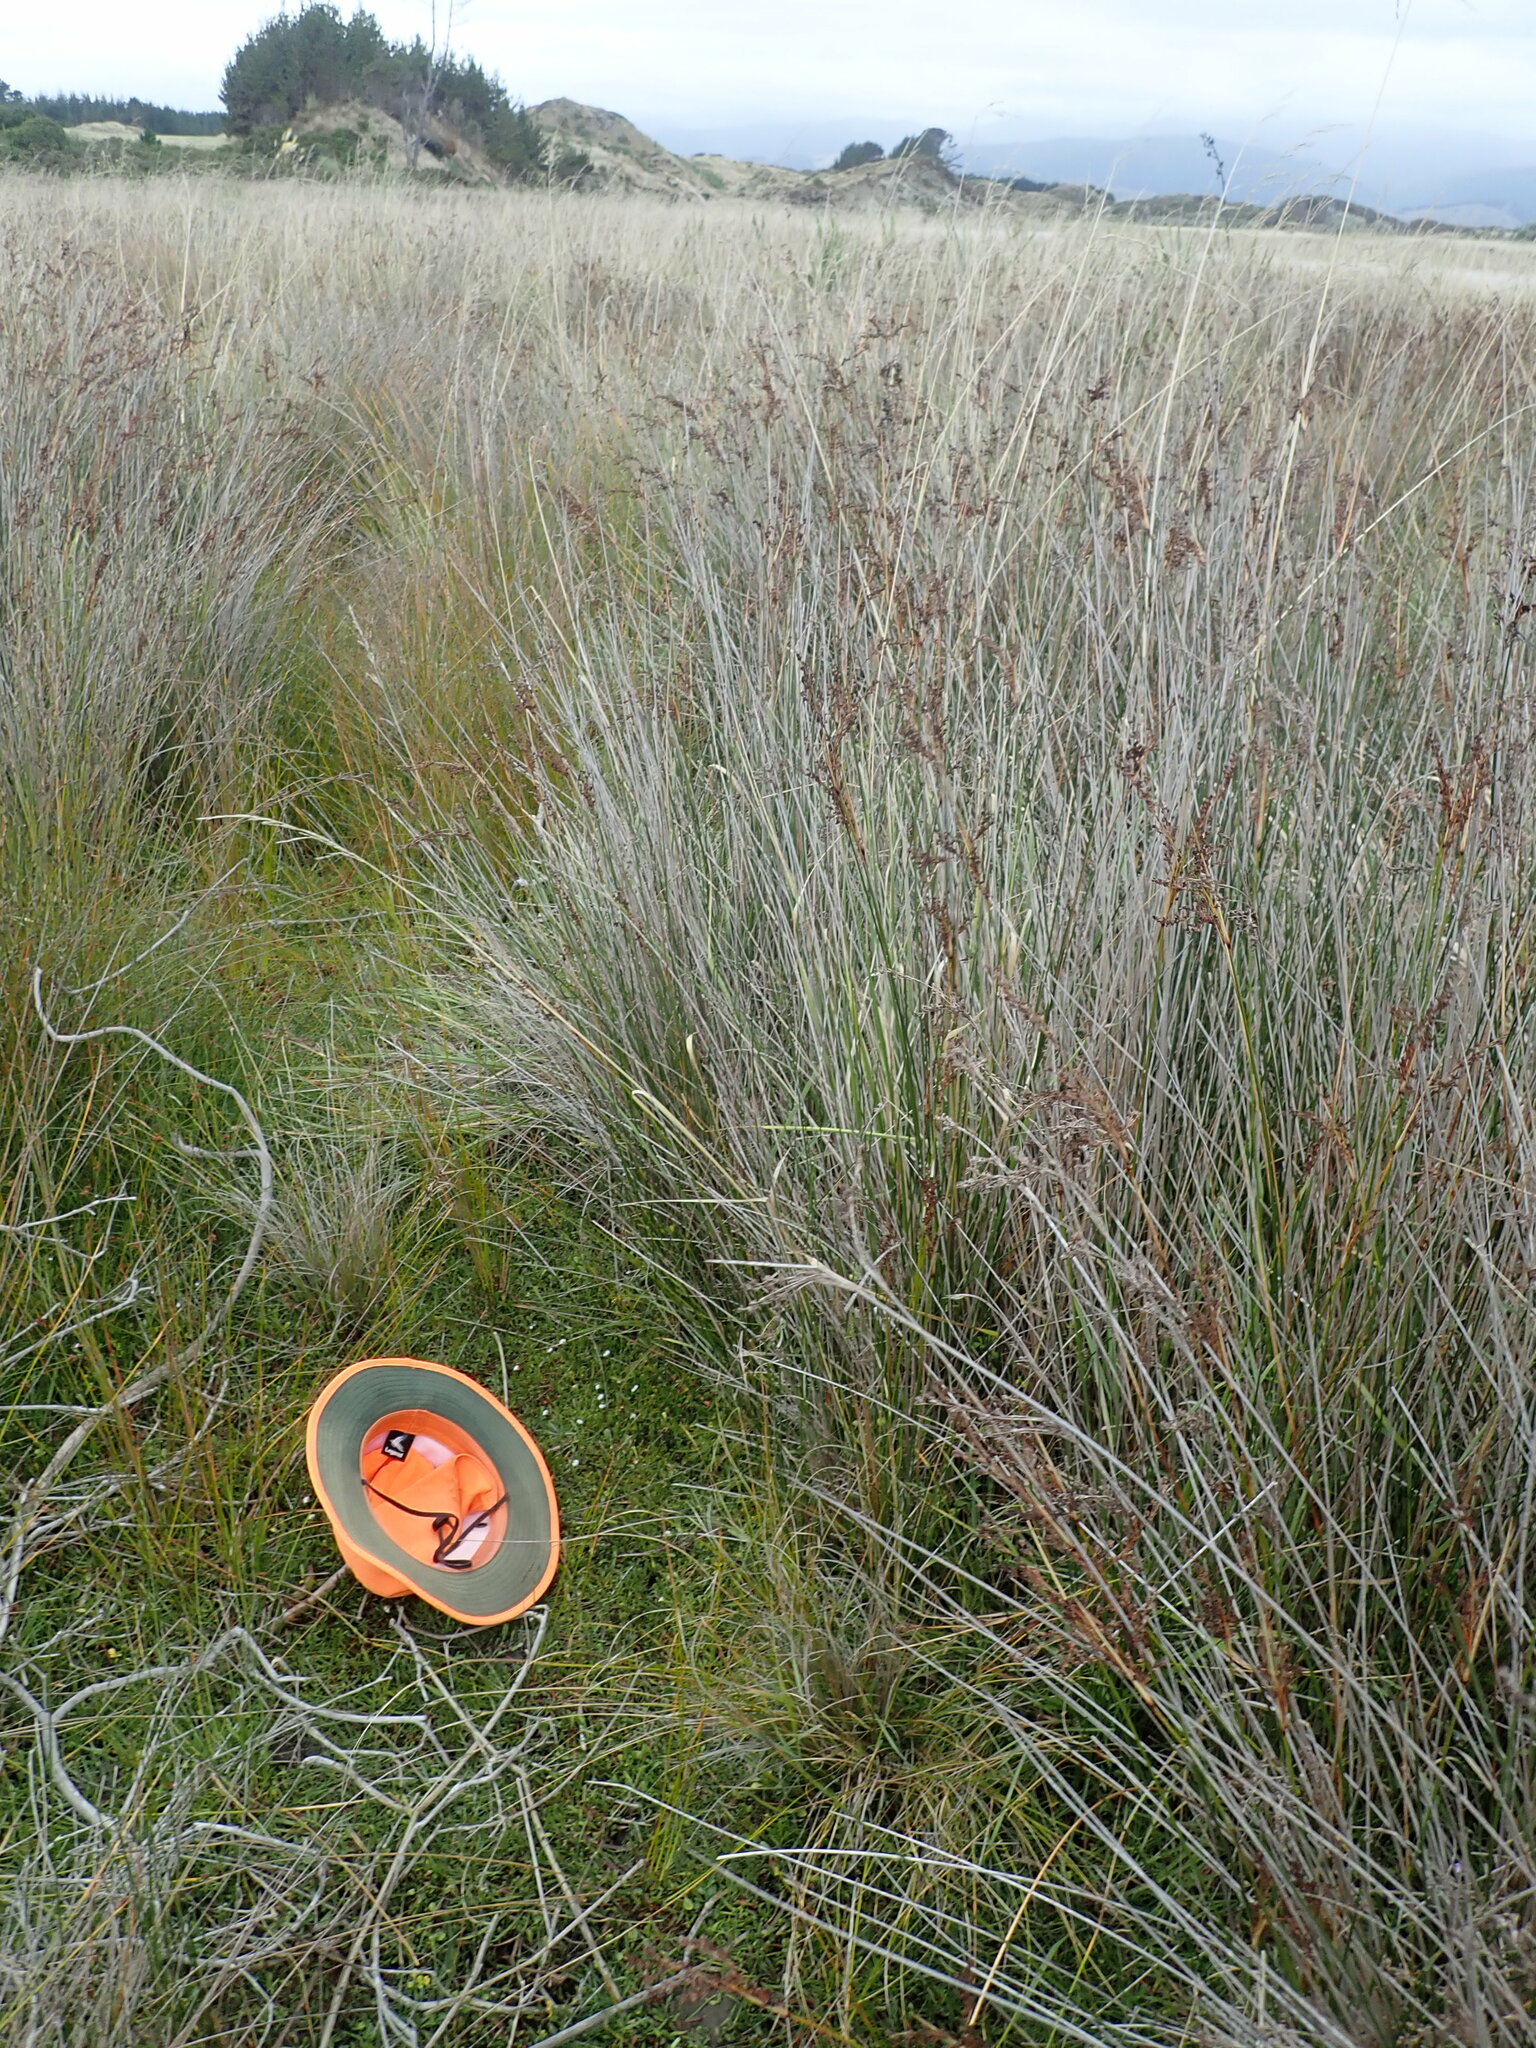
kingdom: Plantae
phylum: Tracheophyta
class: Magnoliopsida
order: Asterales
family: Goodeniaceae
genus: Goodenia
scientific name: Goodenia radicans
